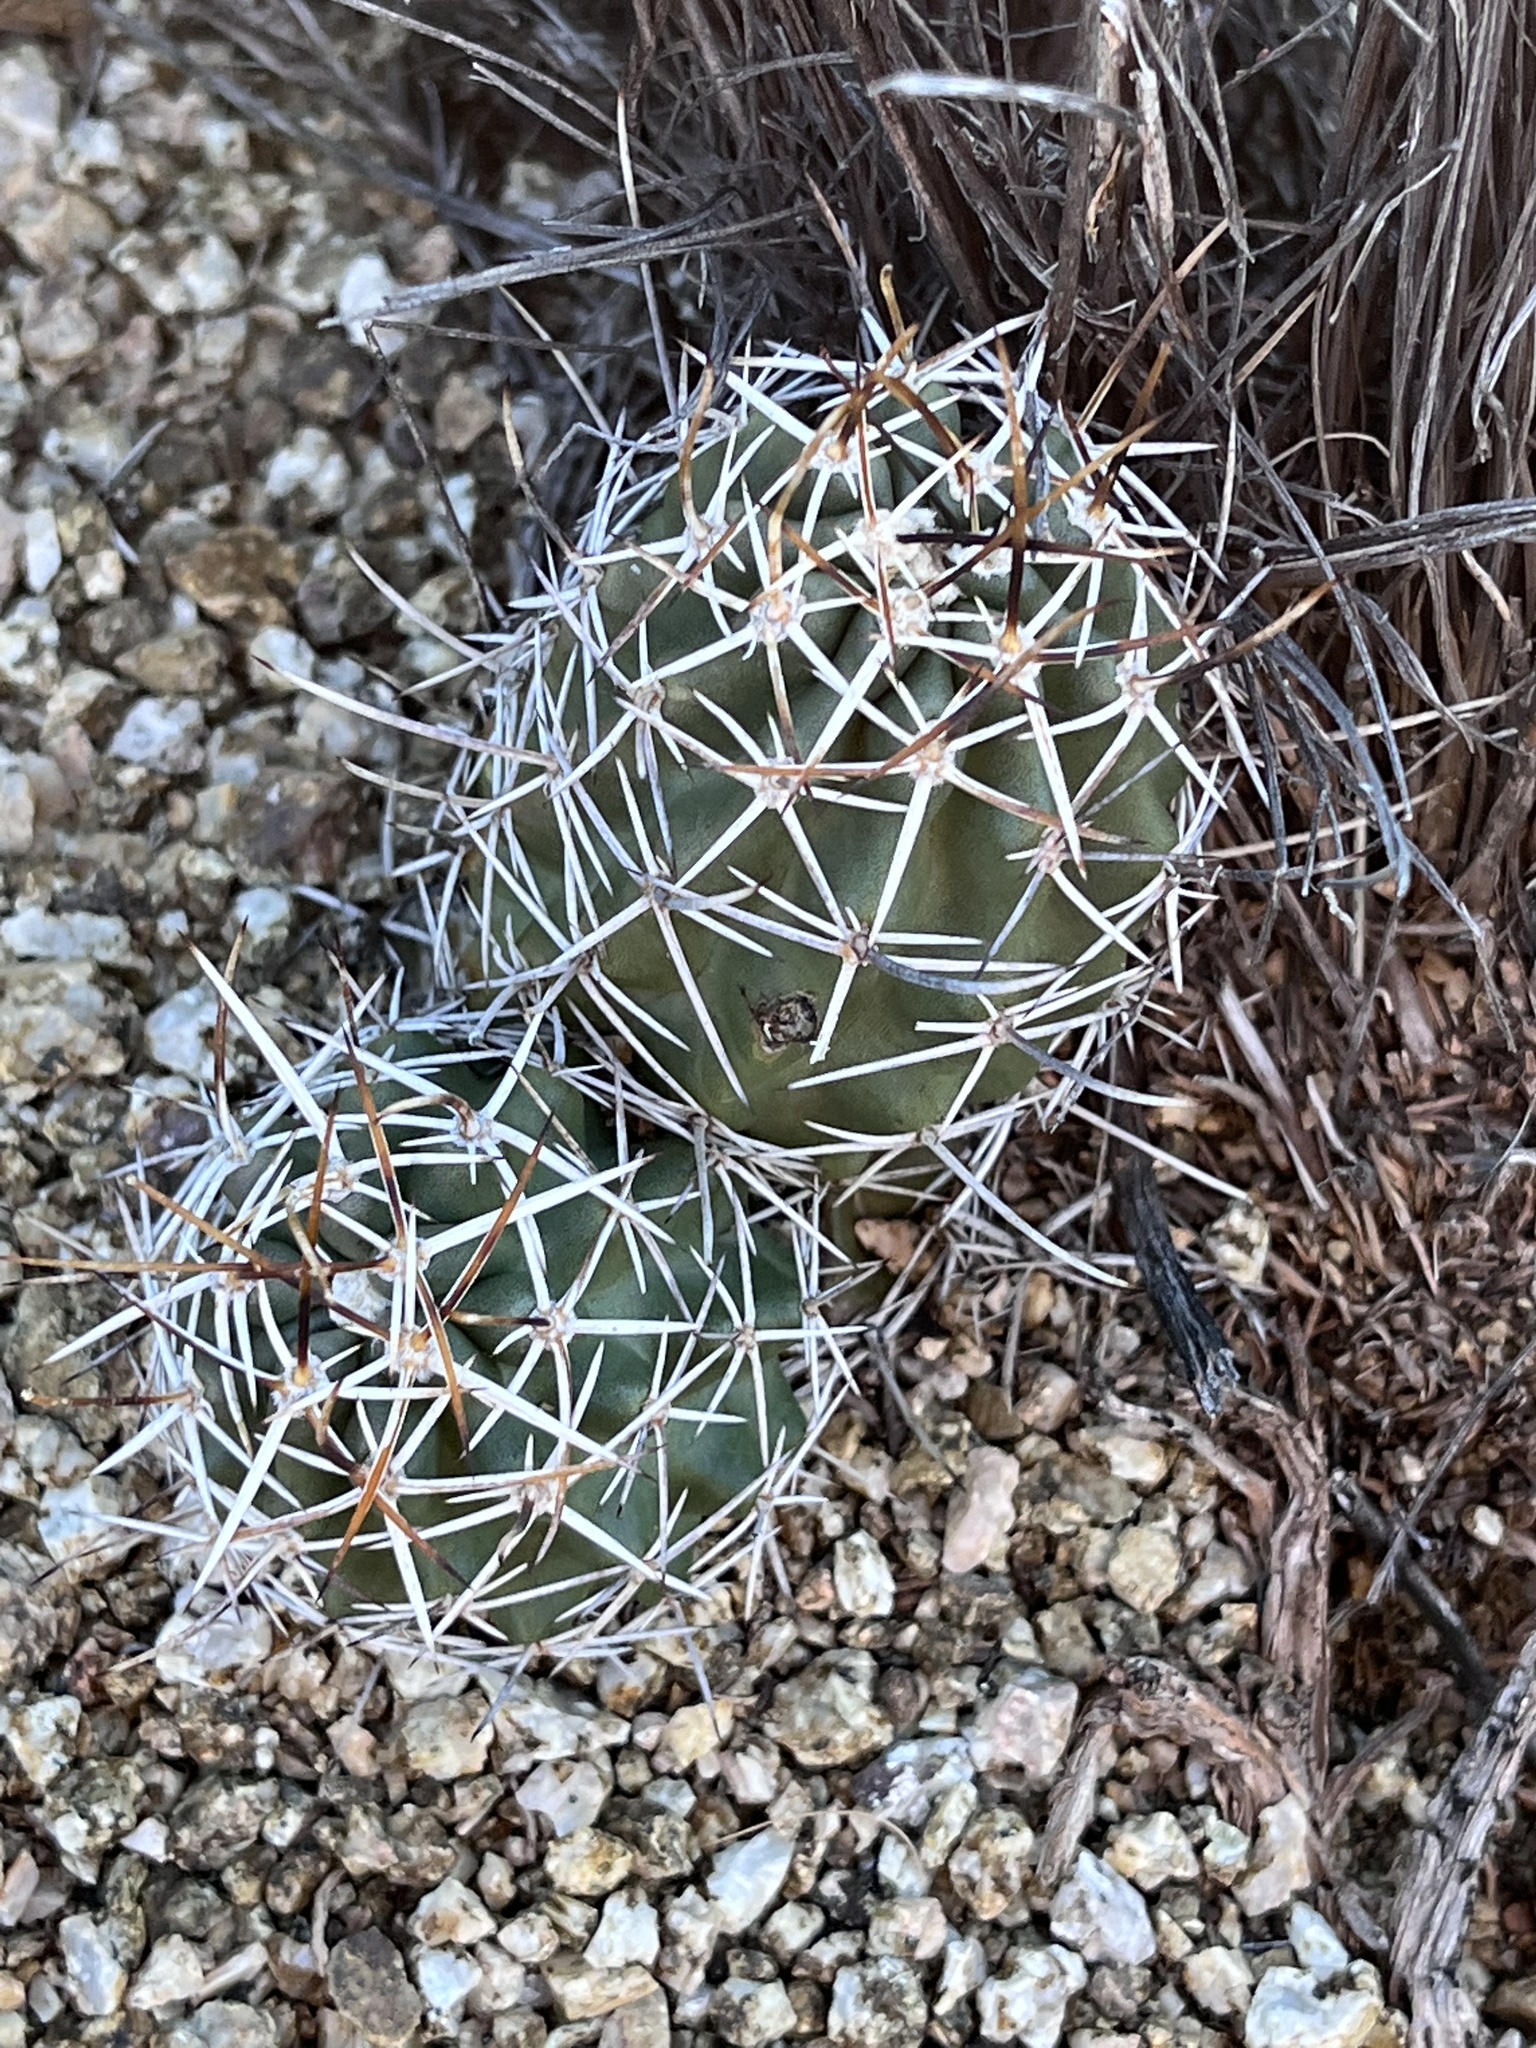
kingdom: Plantae
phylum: Tracheophyta
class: Magnoliopsida
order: Caryophyllales
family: Cactaceae
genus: Echinocereus
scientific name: Echinocereus fendleri
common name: Fendler's hedgehog cactus
